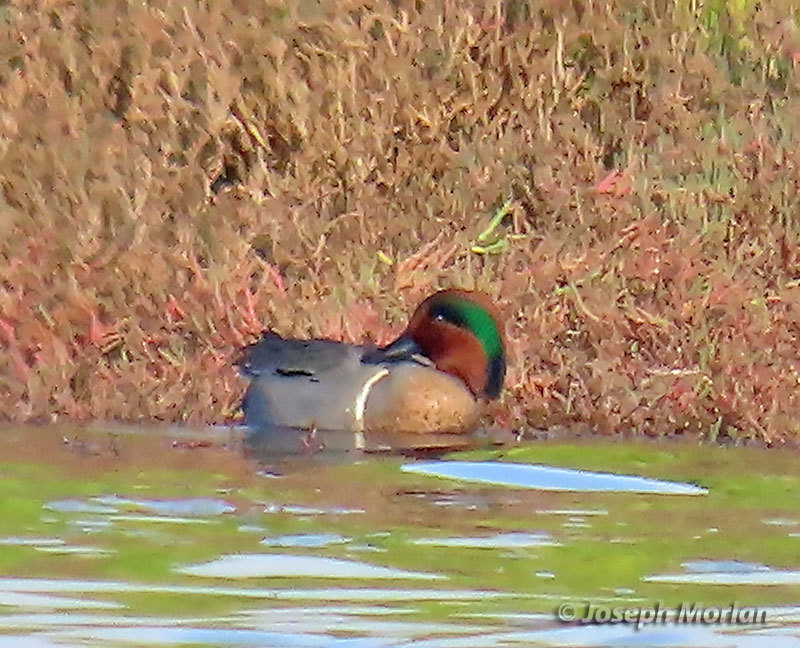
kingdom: Animalia
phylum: Chordata
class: Aves
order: Anseriformes
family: Anatidae
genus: Anas
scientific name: Anas crecca
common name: Eurasian teal
